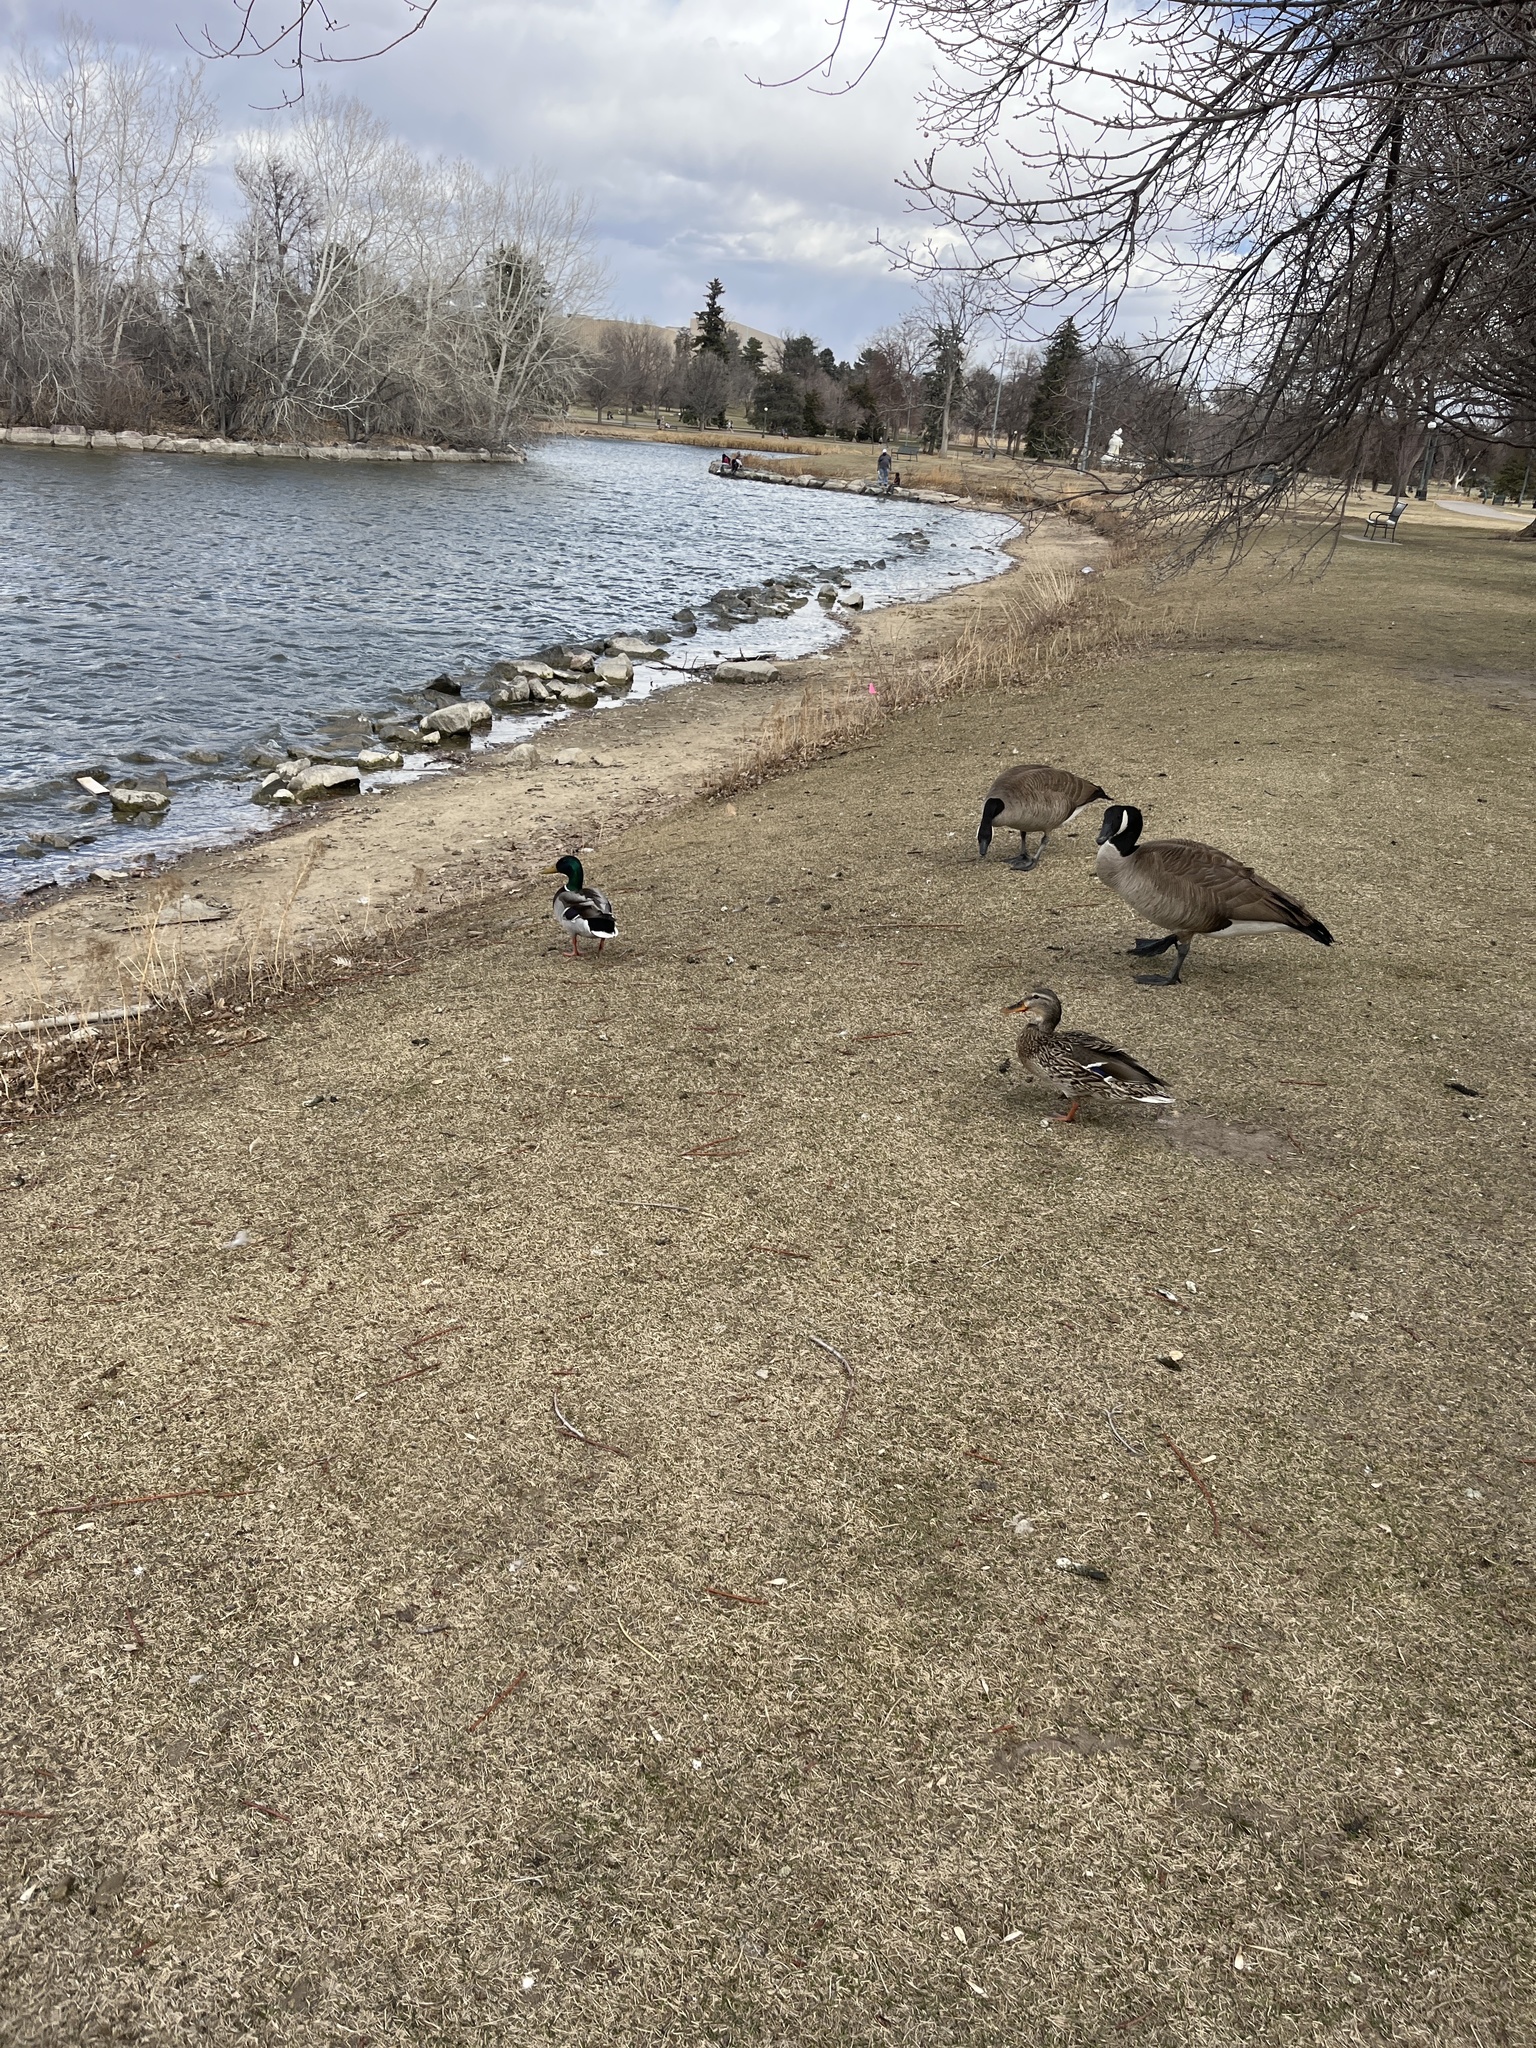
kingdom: Animalia
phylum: Chordata
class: Aves
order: Anseriformes
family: Anatidae
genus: Anas
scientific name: Anas platyrhynchos
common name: Mallard
